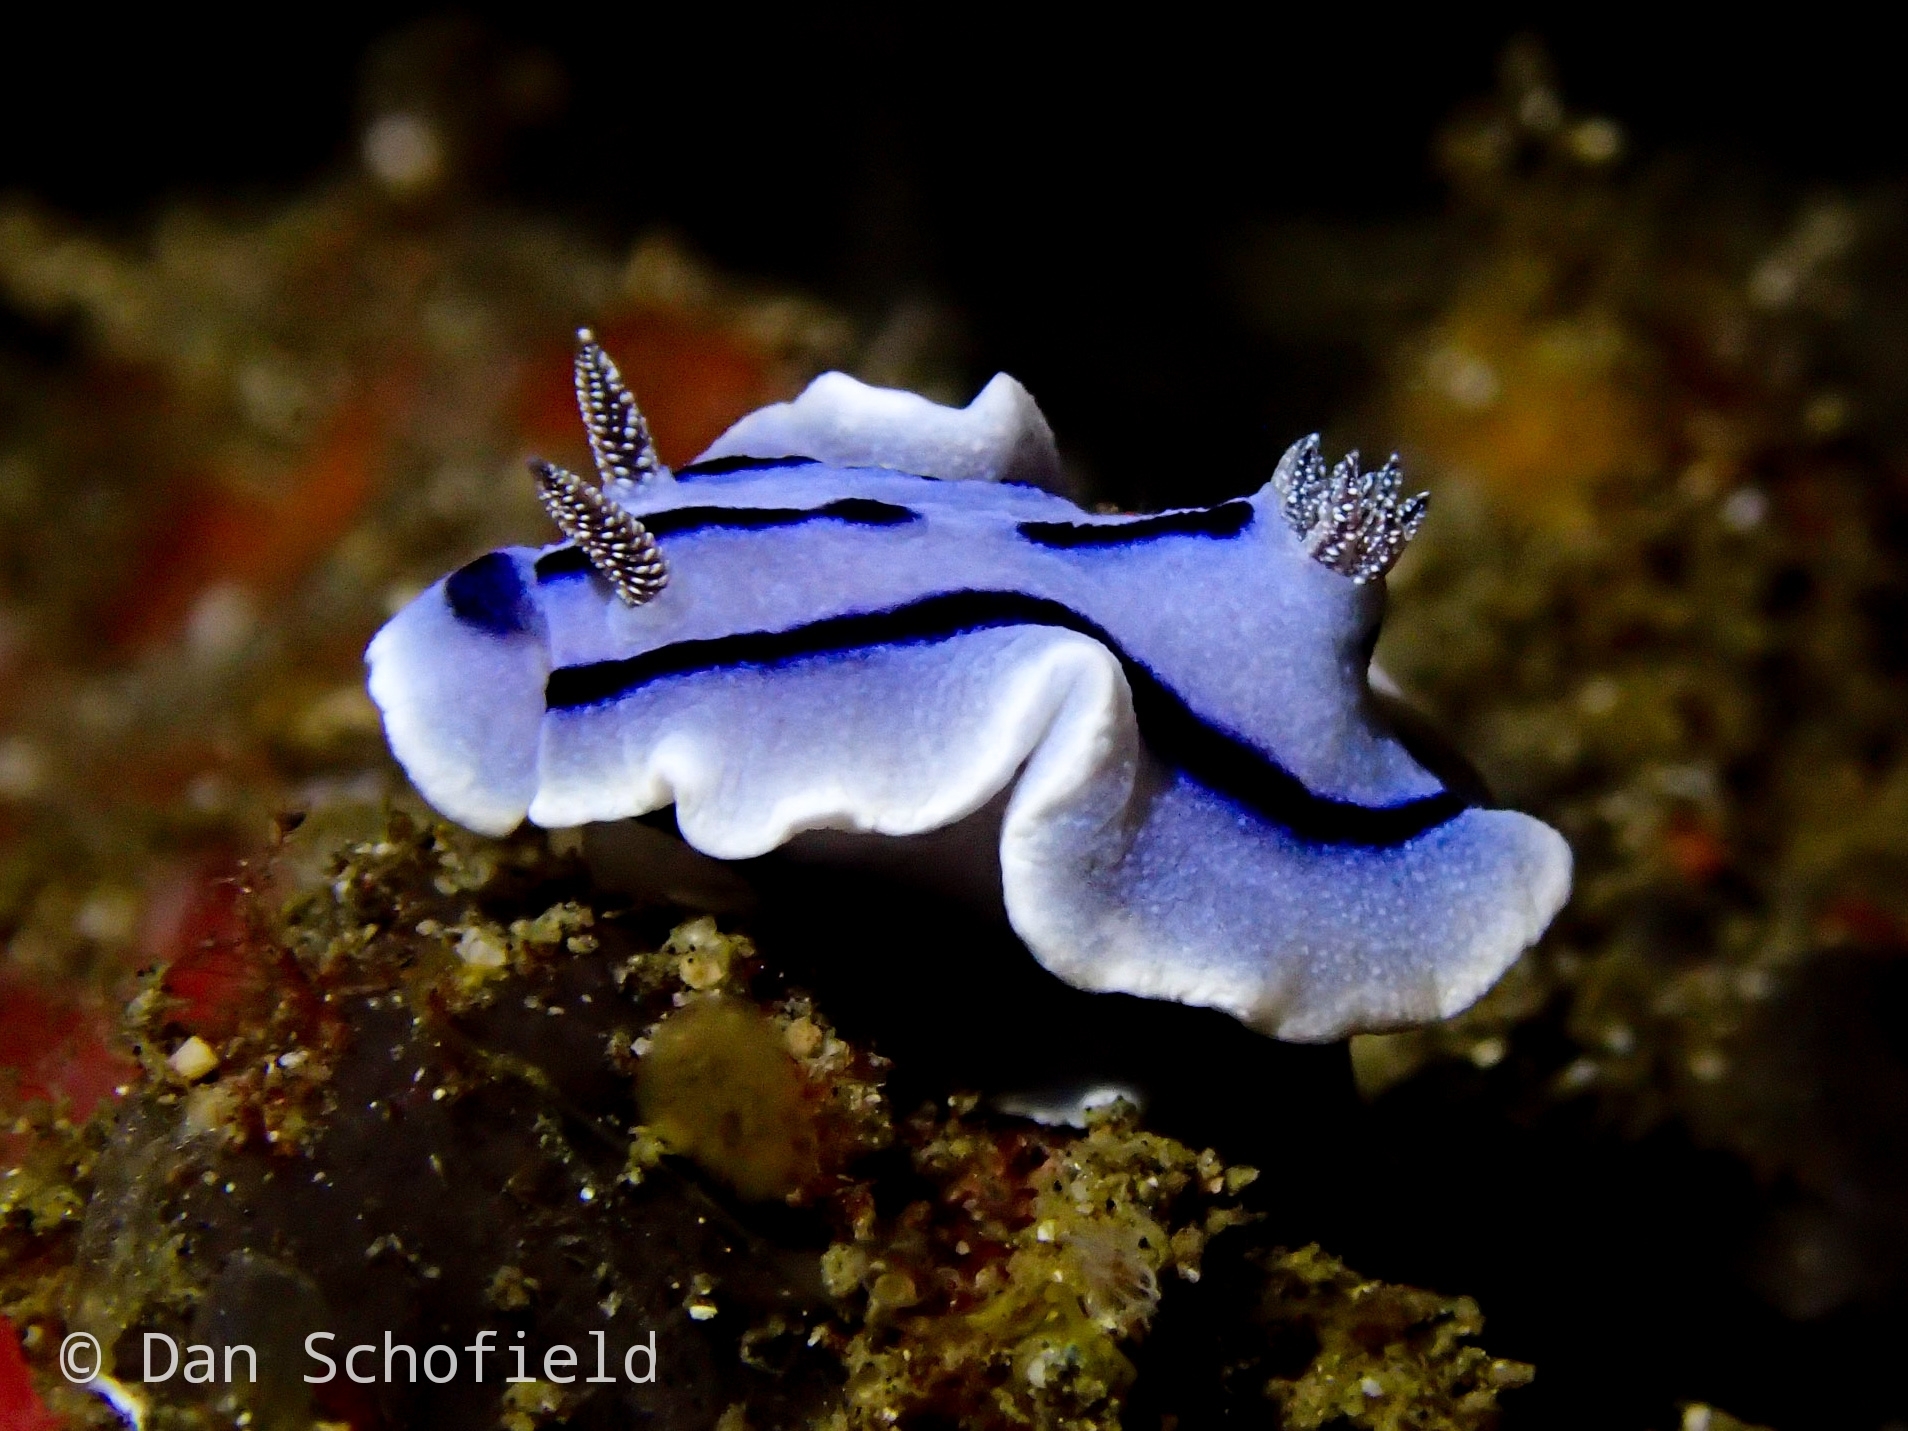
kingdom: Animalia
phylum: Mollusca
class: Gastropoda
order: Nudibranchia
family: Chromodorididae
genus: Chromodoris
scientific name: Chromodoris willani
